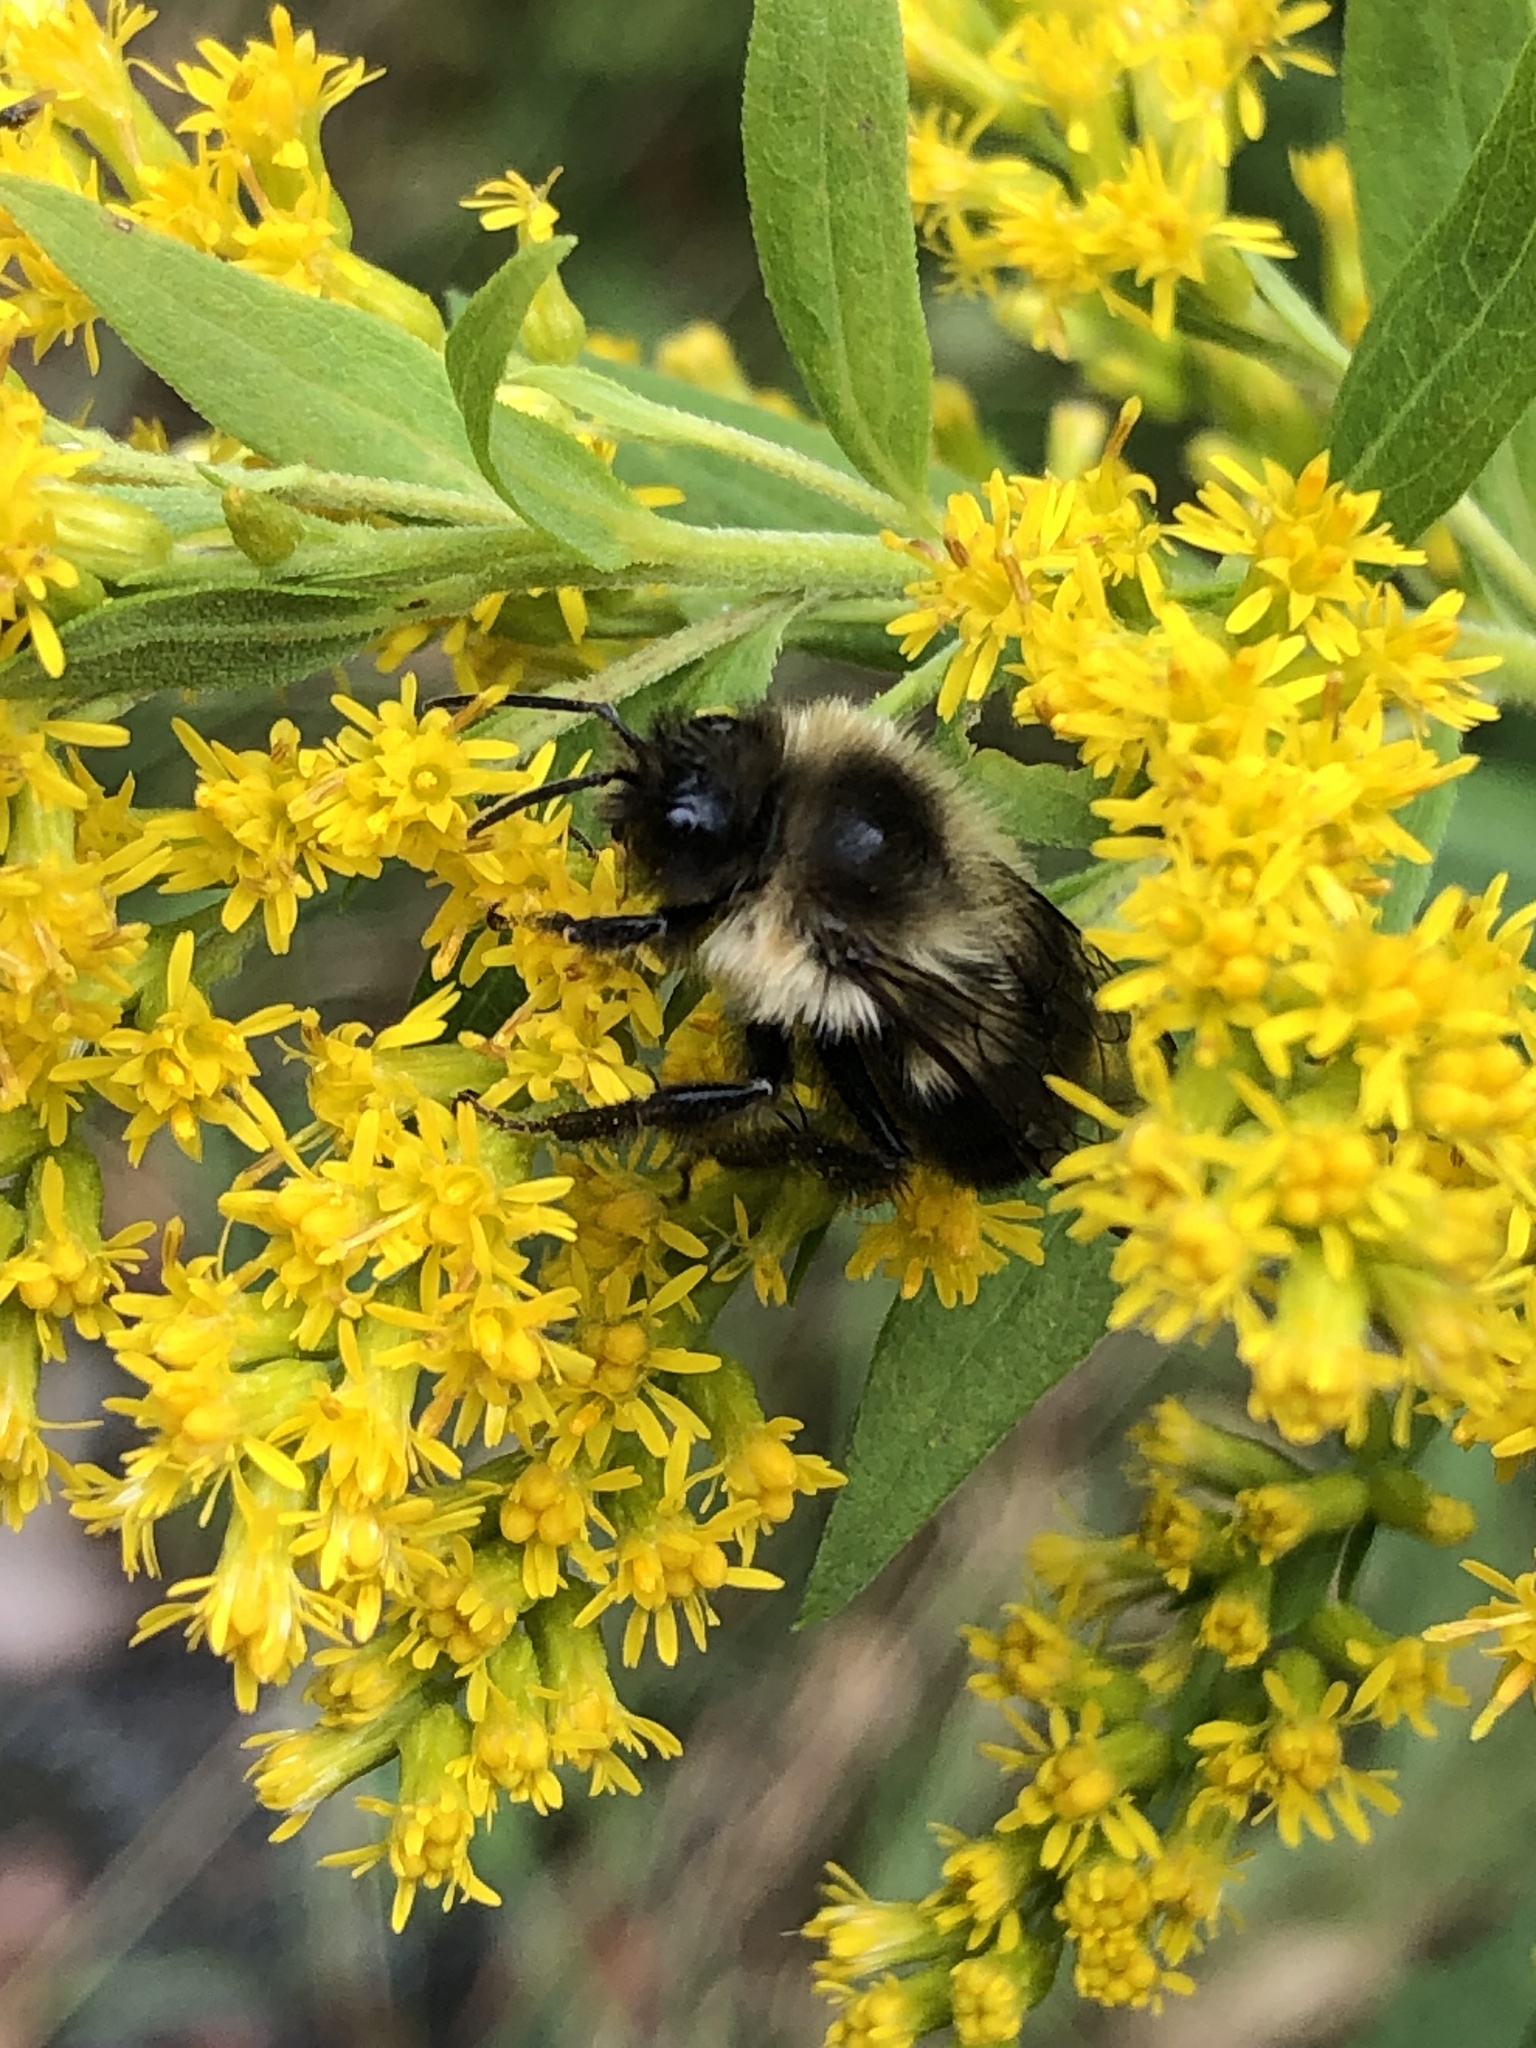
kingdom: Animalia
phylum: Arthropoda
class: Insecta
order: Hymenoptera
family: Apidae
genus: Bombus
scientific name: Bombus impatiens
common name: Common eastern bumble bee
